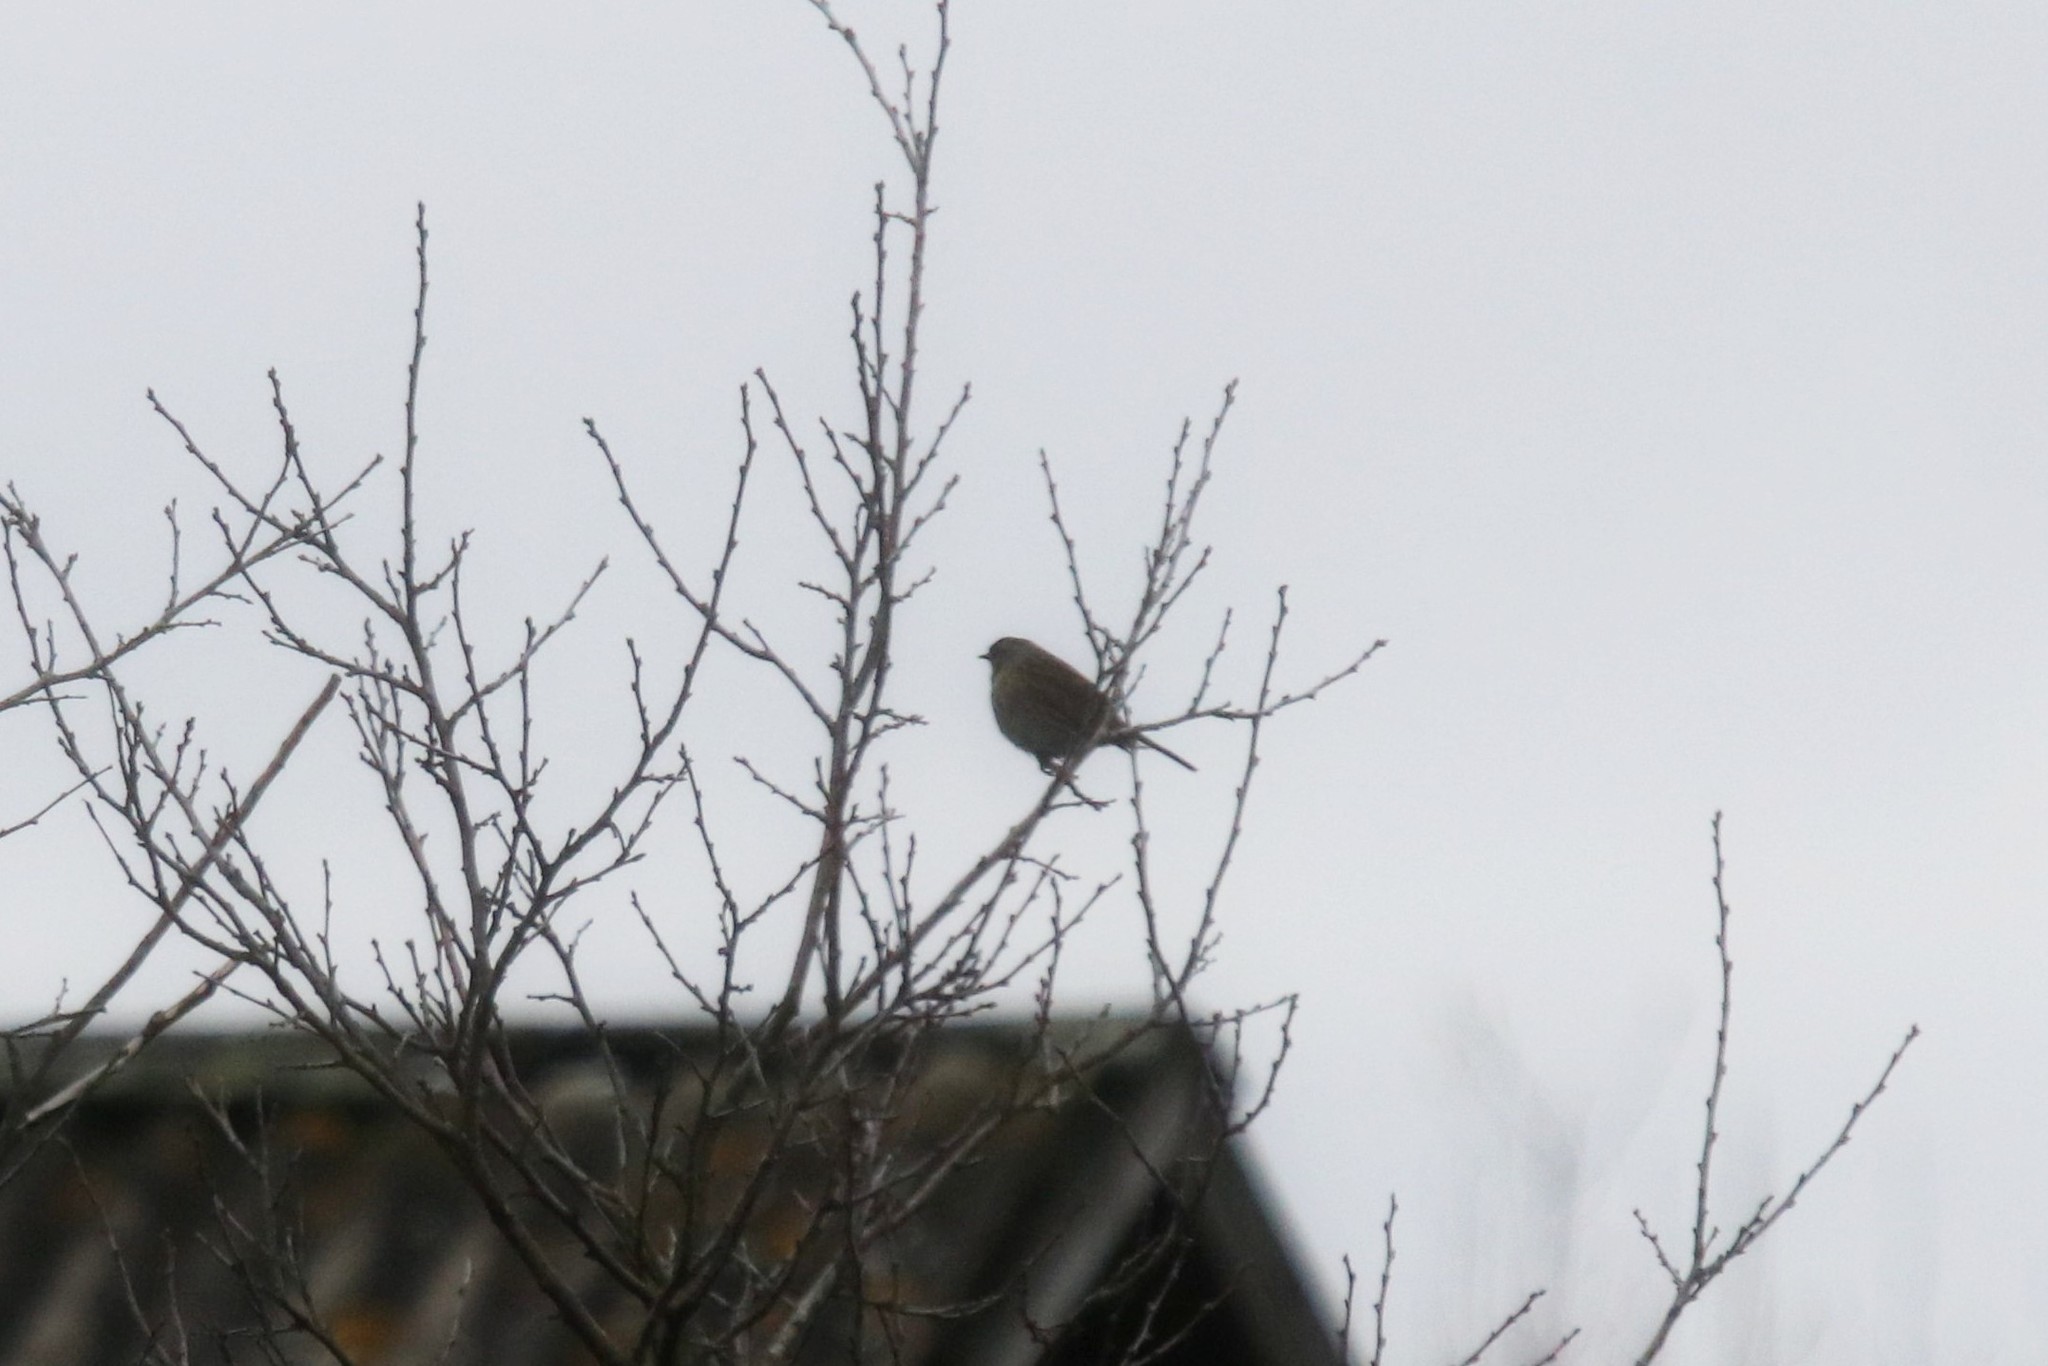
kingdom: Animalia
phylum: Chordata
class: Aves
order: Passeriformes
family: Prunellidae
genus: Prunella
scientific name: Prunella modularis
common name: Dunnock
